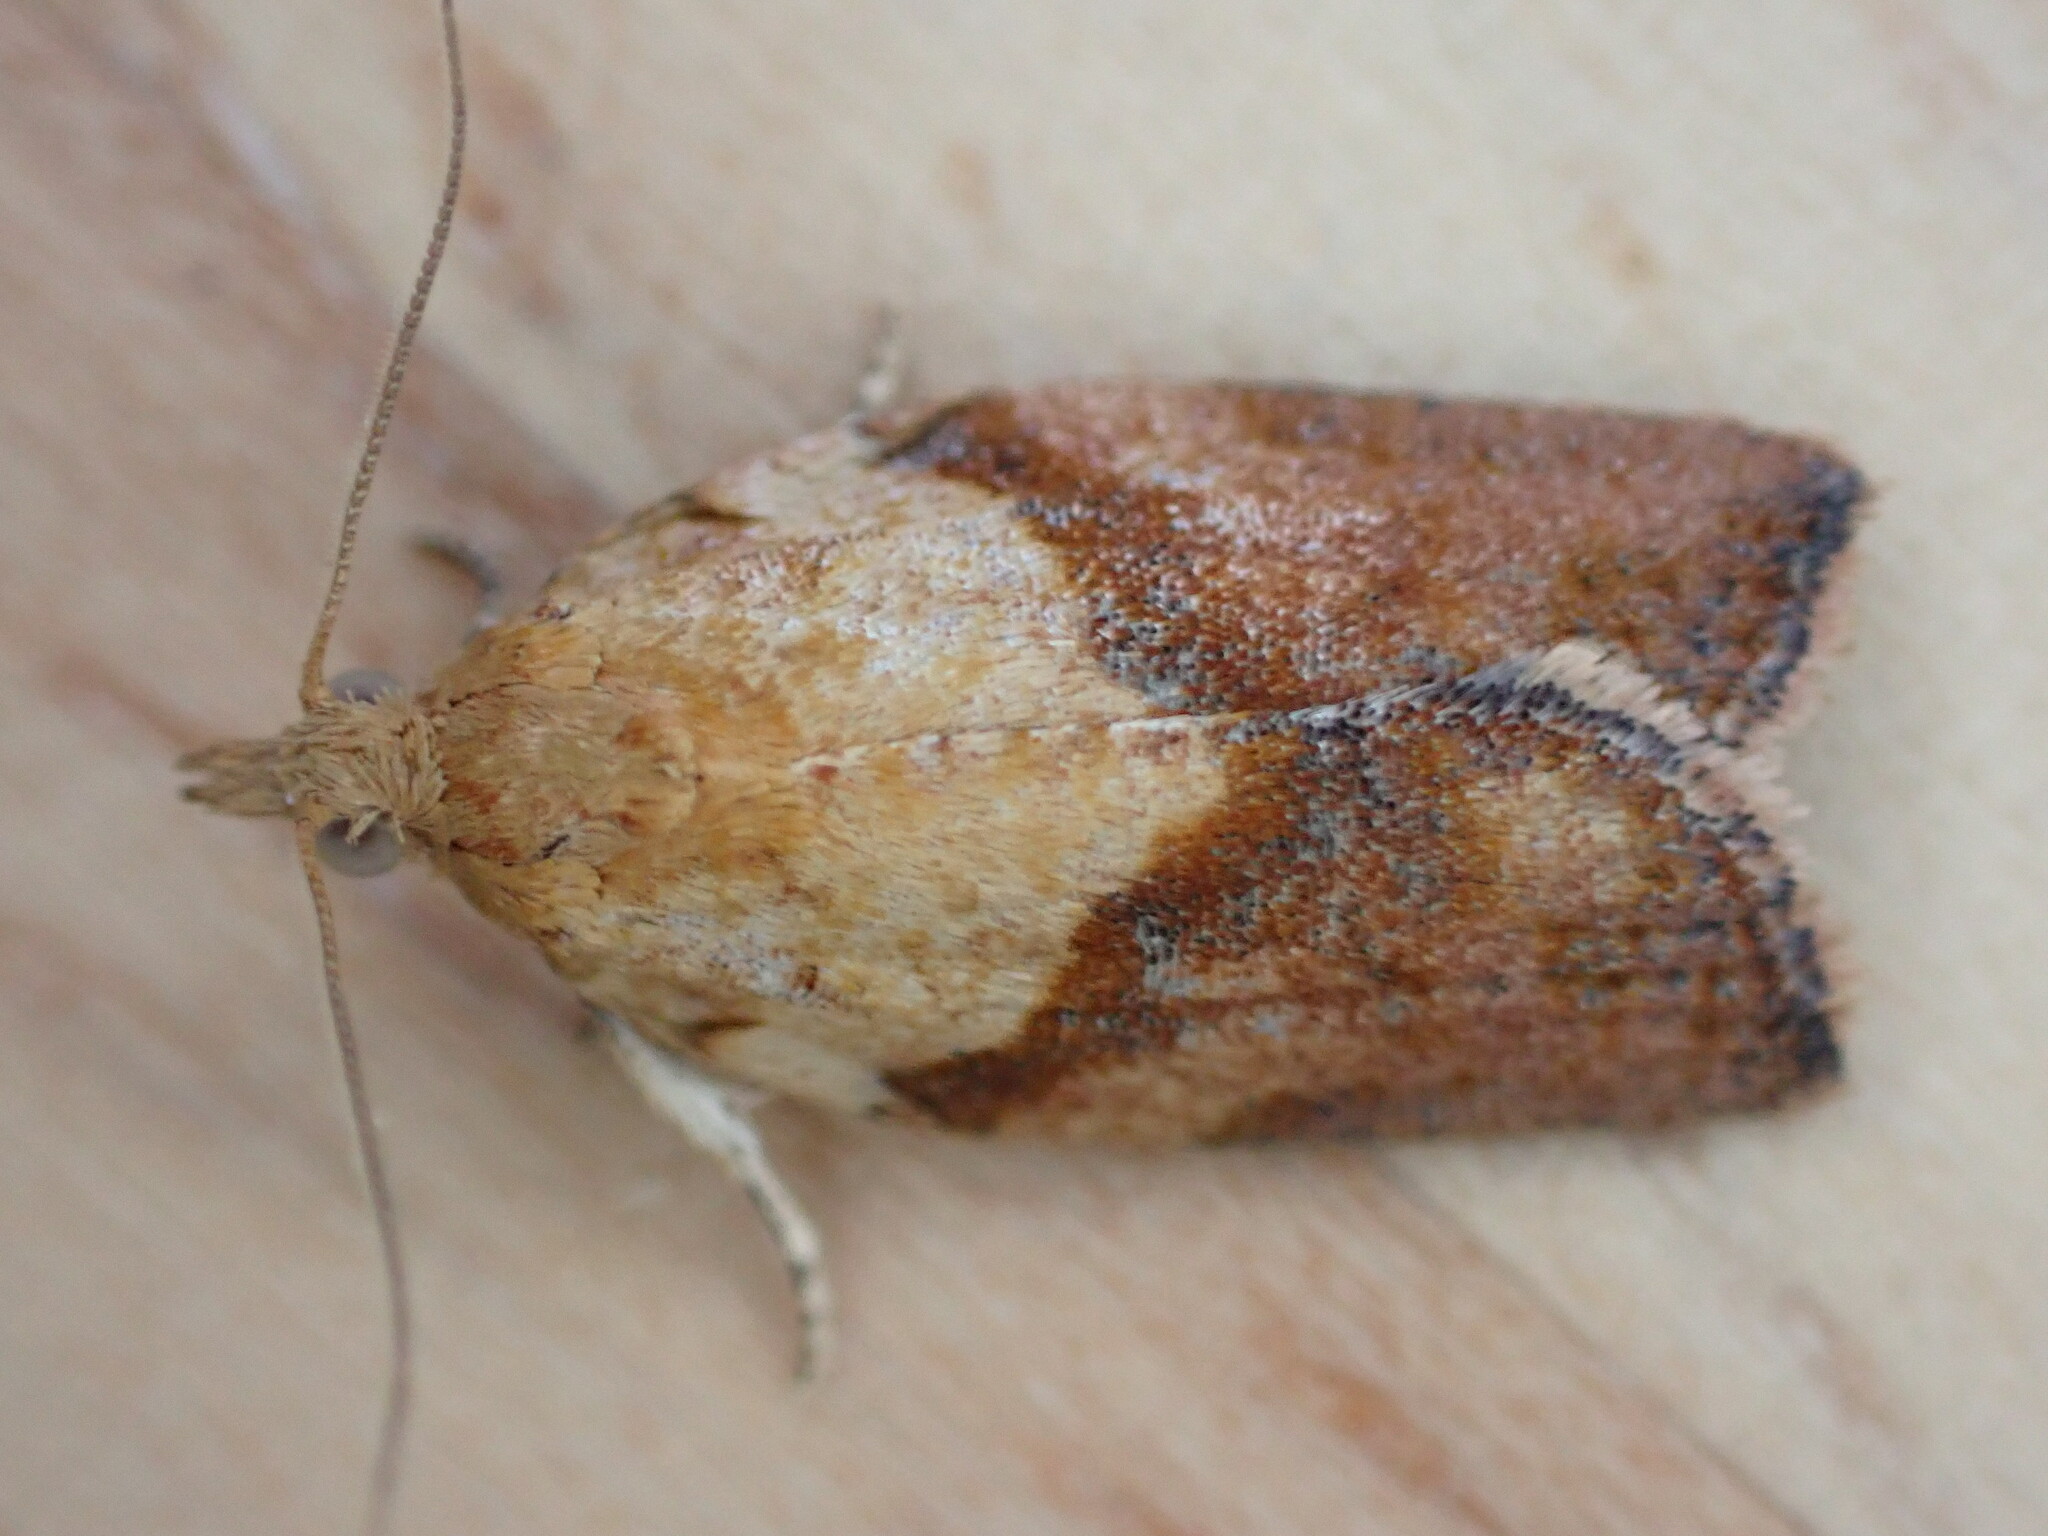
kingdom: Animalia
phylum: Arthropoda
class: Insecta
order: Lepidoptera
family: Tortricidae
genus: Epiphyas
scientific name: Epiphyas postvittana
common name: Light brown apple moth
